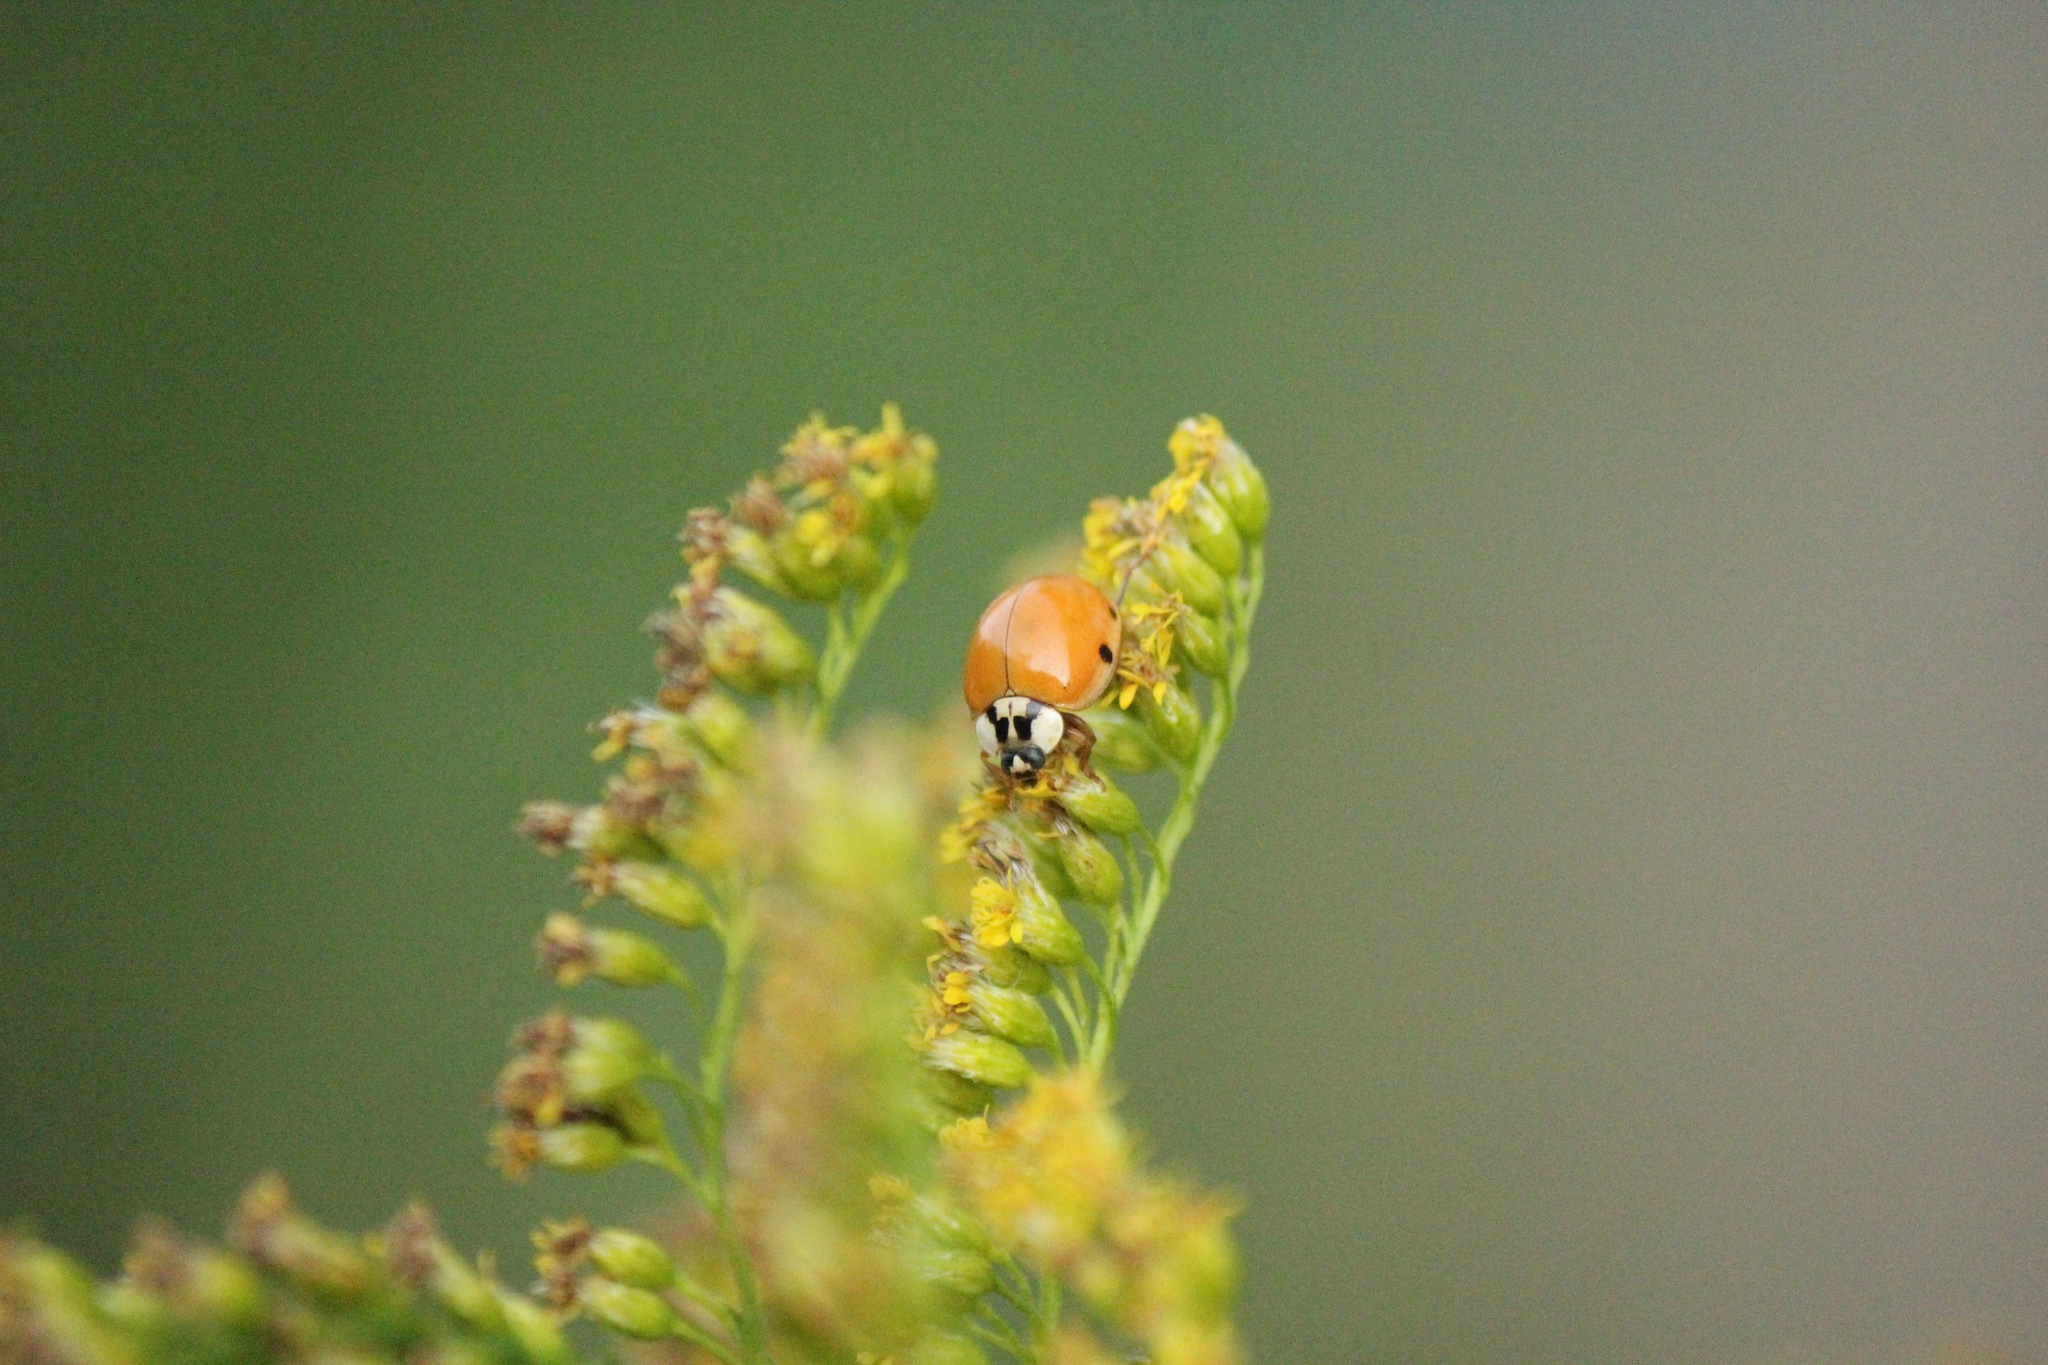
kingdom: Animalia
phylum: Arthropoda
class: Insecta
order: Coleoptera
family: Coccinellidae
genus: Harmonia
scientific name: Harmonia axyridis
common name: Harlequin ladybird
